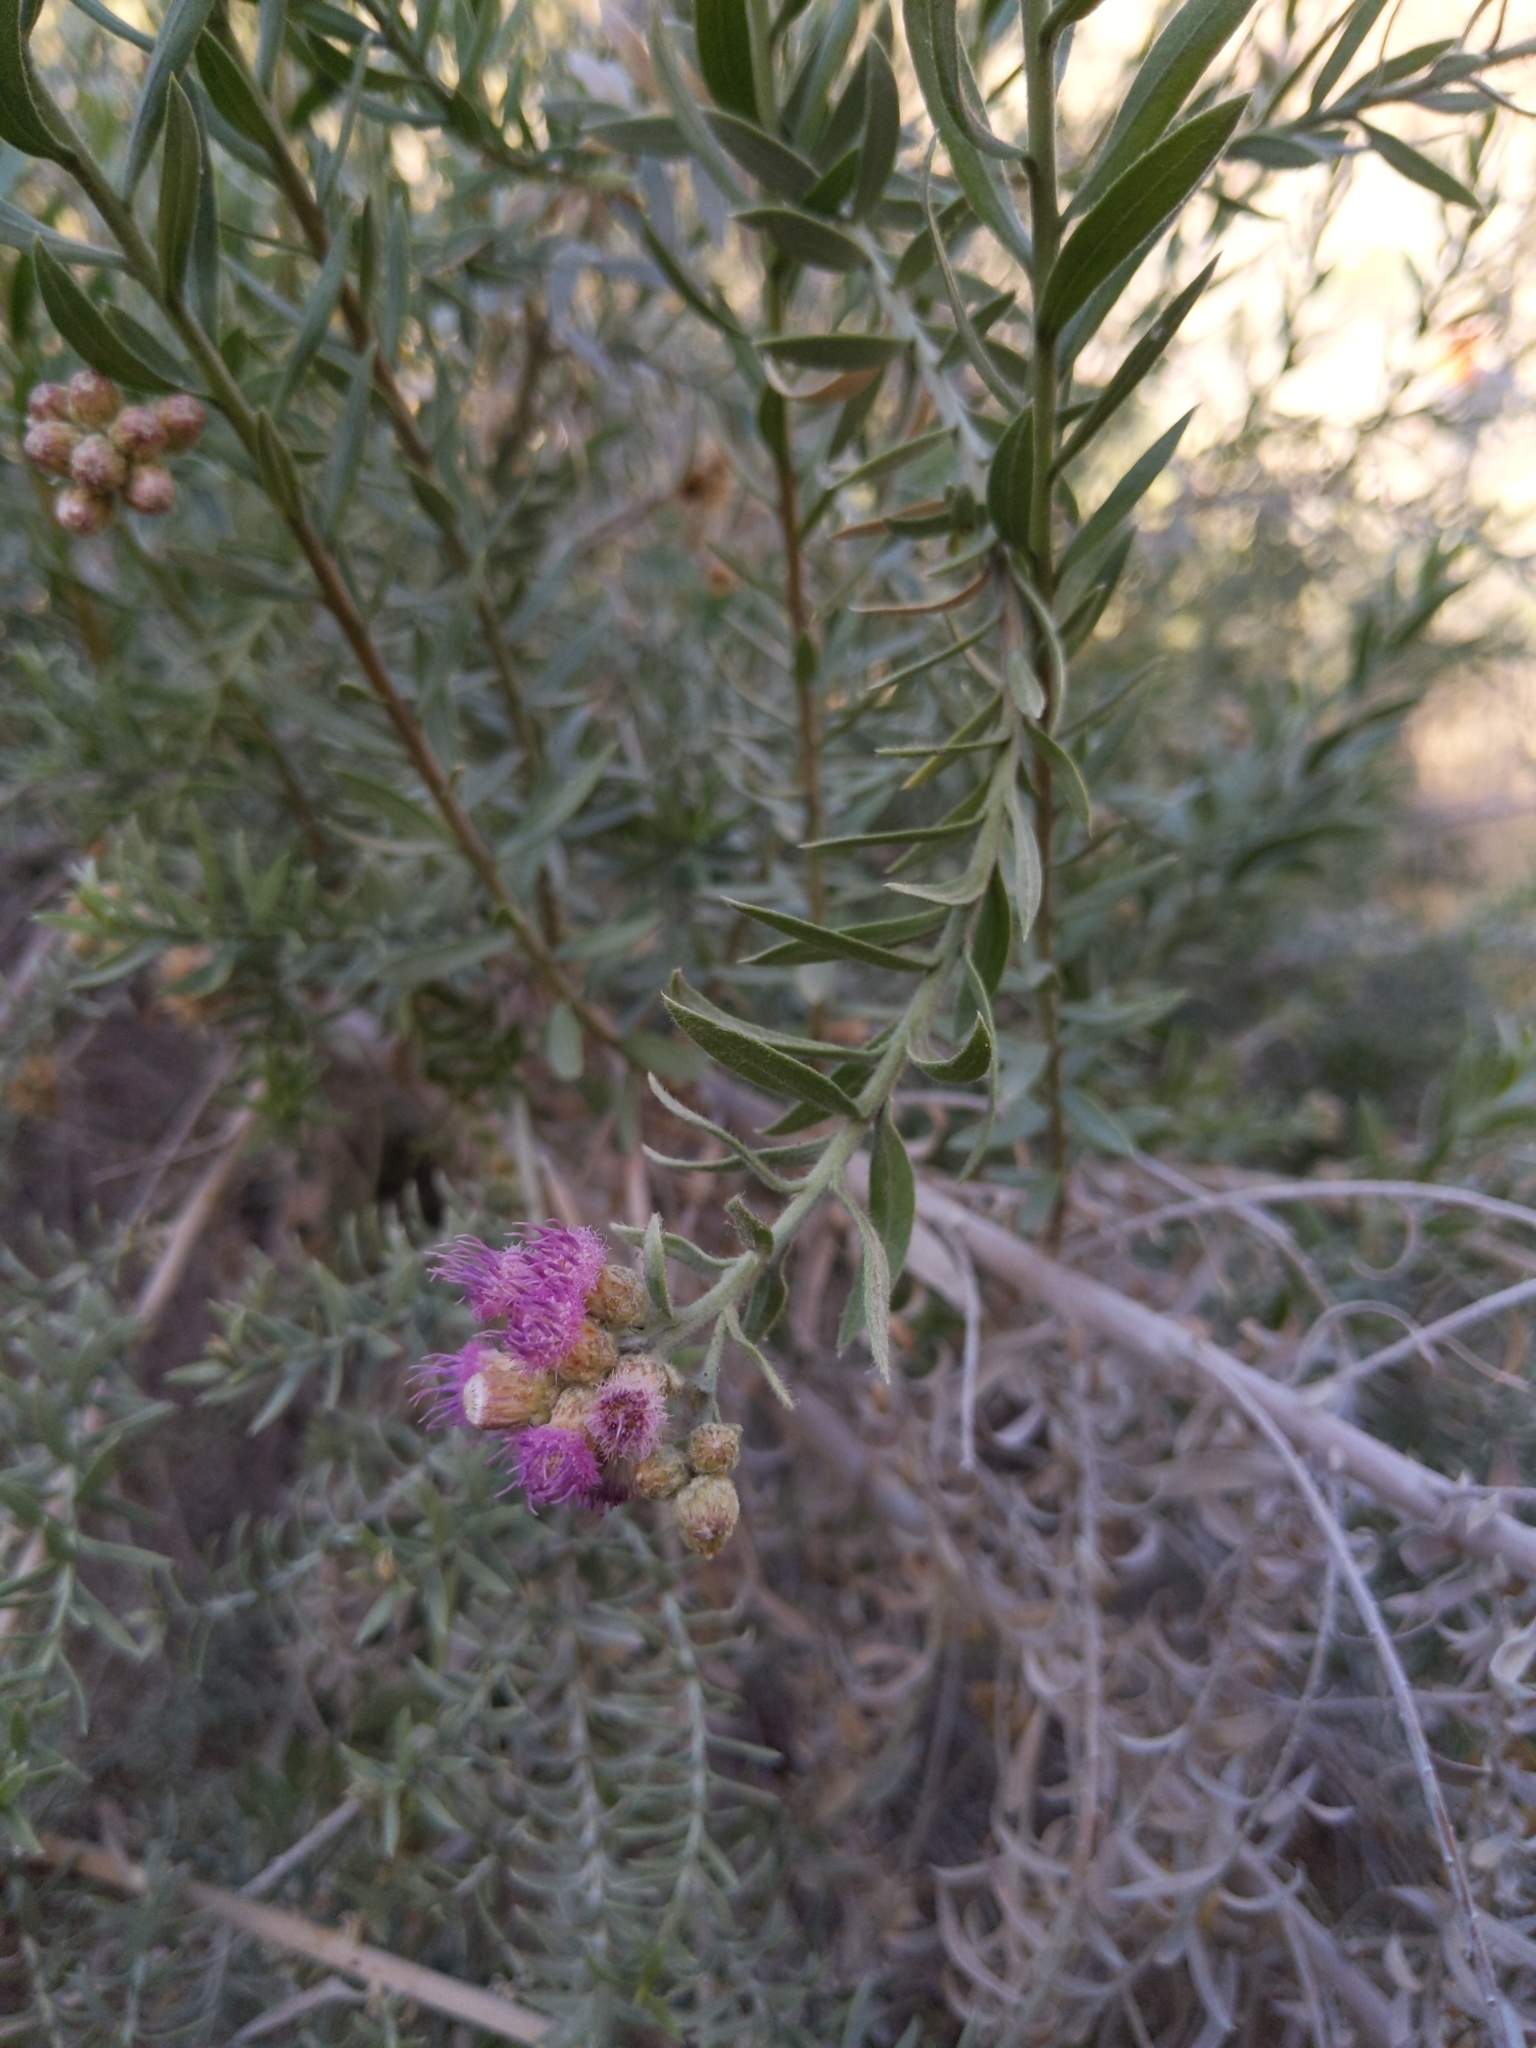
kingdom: Plantae
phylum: Tracheophyta
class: Magnoliopsida
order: Asterales
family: Asteraceae
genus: Pluchea
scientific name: Pluchea sericea
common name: Arrow-weed
